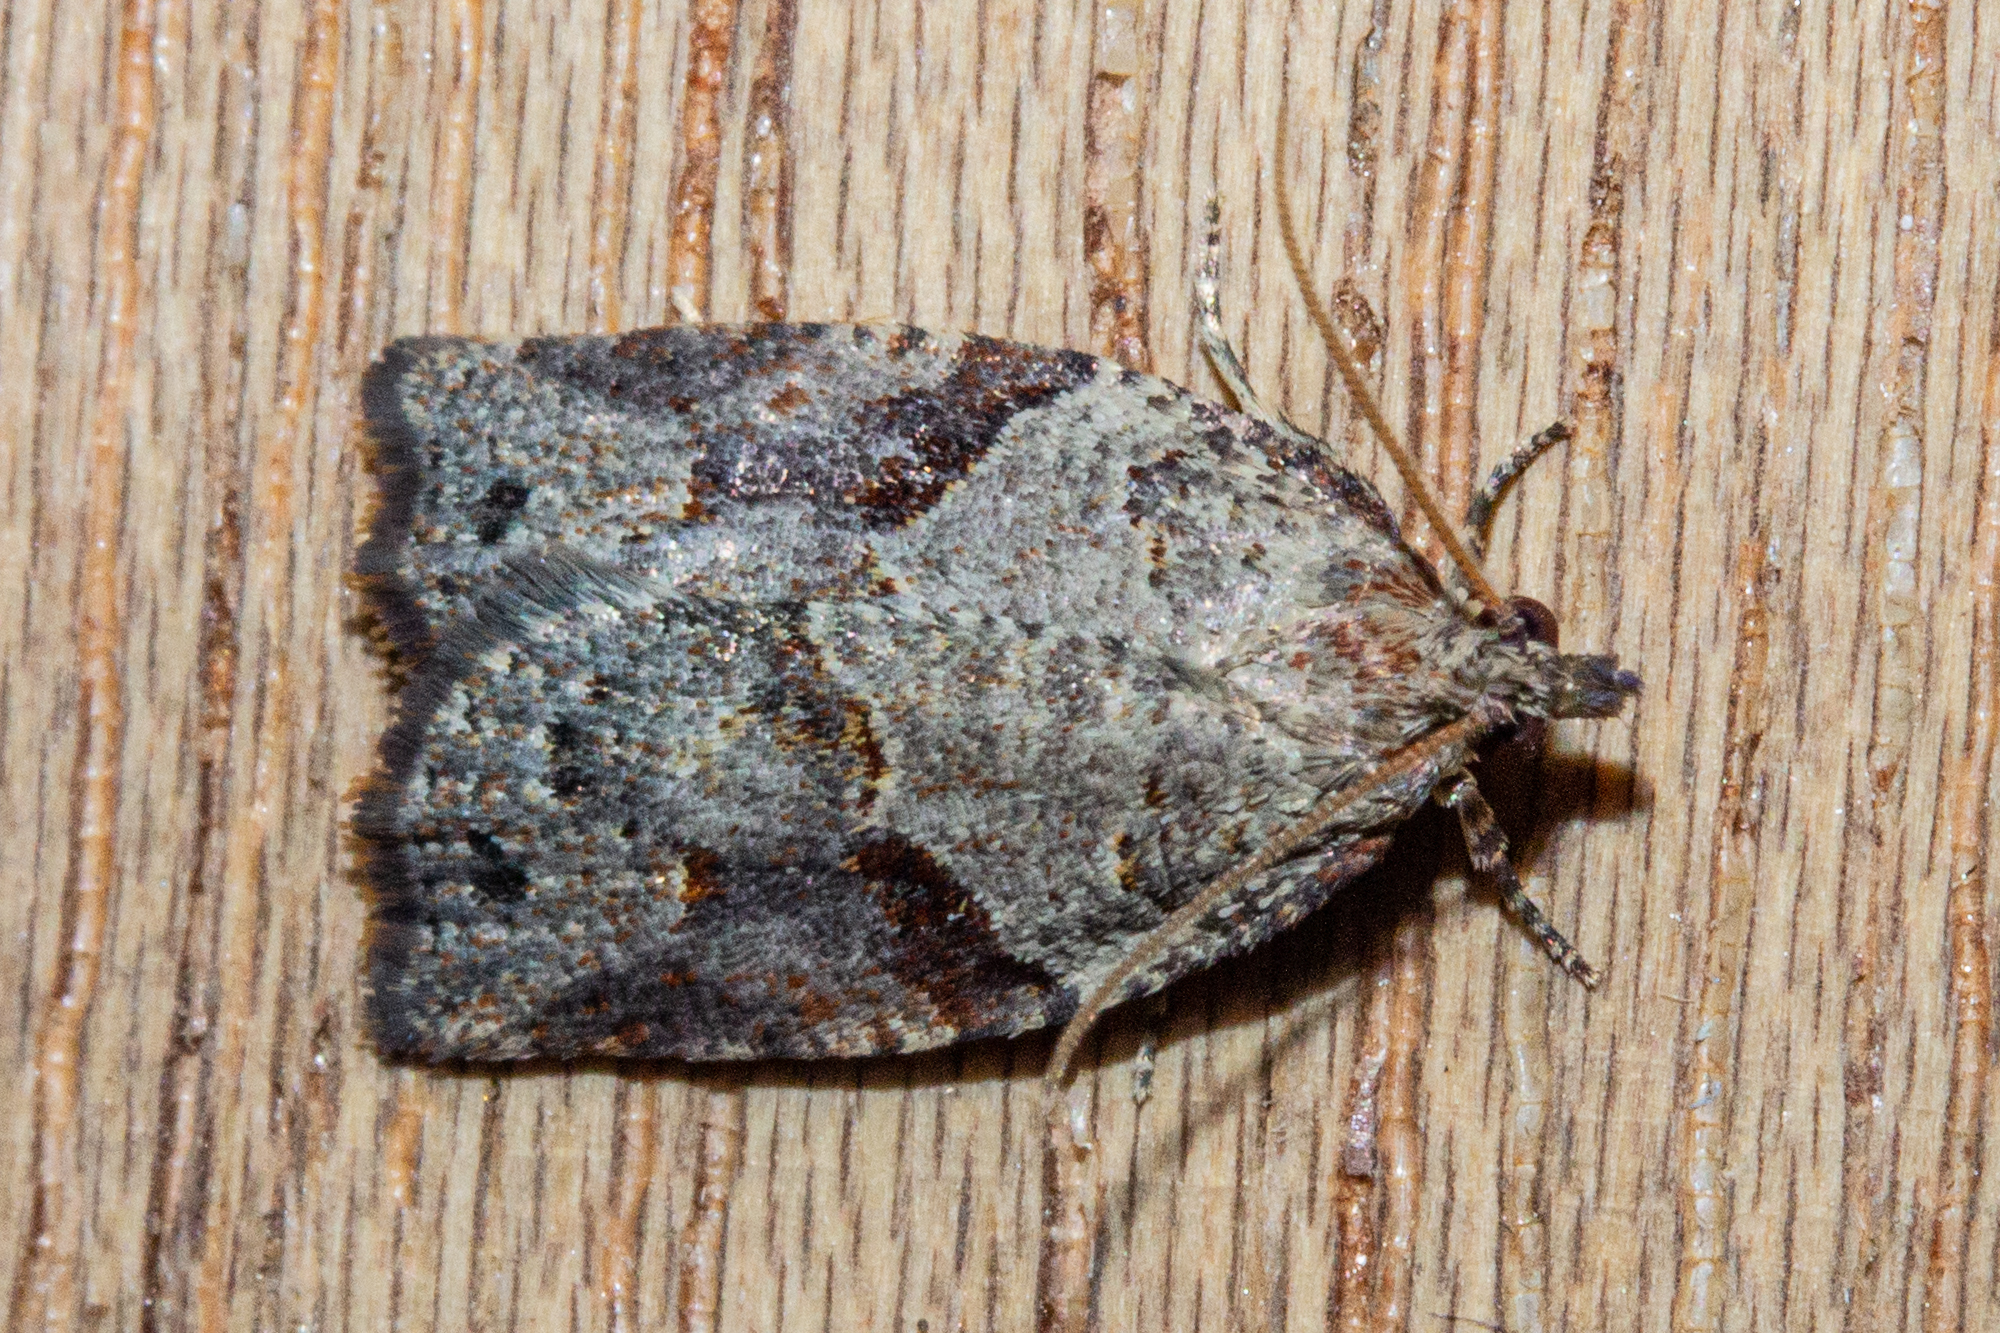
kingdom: Animalia
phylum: Arthropoda
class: Insecta
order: Lepidoptera
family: Tortricidae
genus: Apoctena
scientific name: Apoctena orthropis
